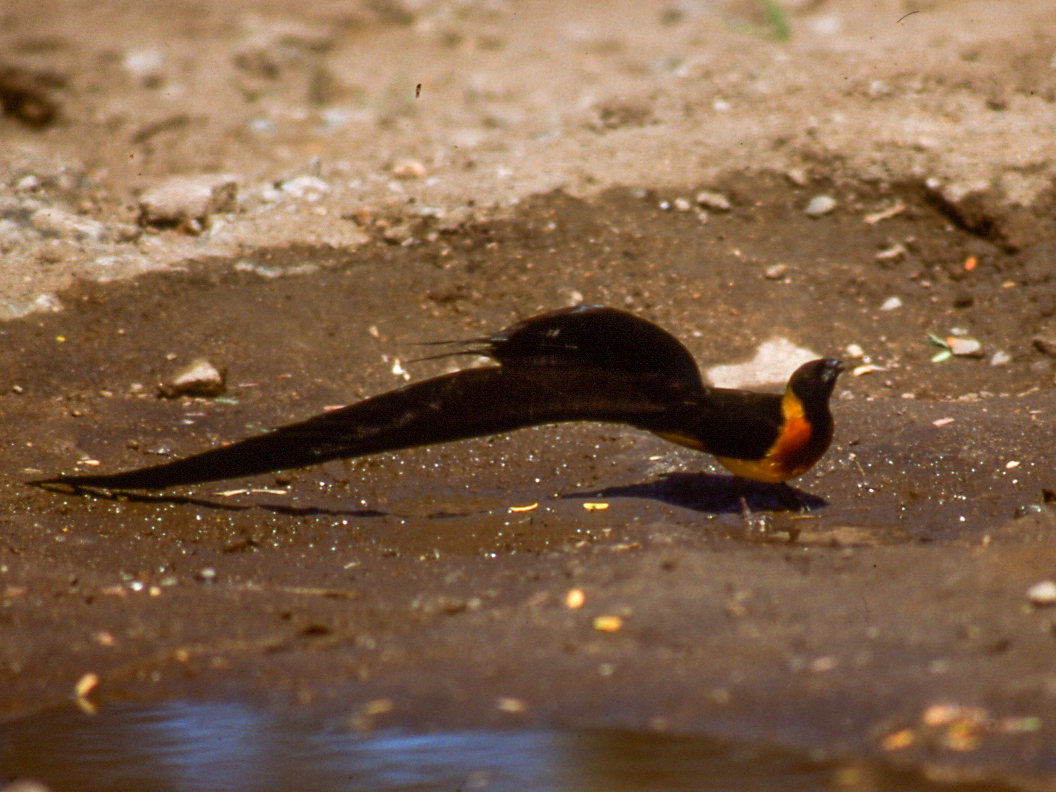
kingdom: Animalia
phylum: Chordata
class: Aves
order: Passeriformes
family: Viduidae
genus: Vidua
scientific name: Vidua paradisaea
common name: Long-tailed paradise whydah
